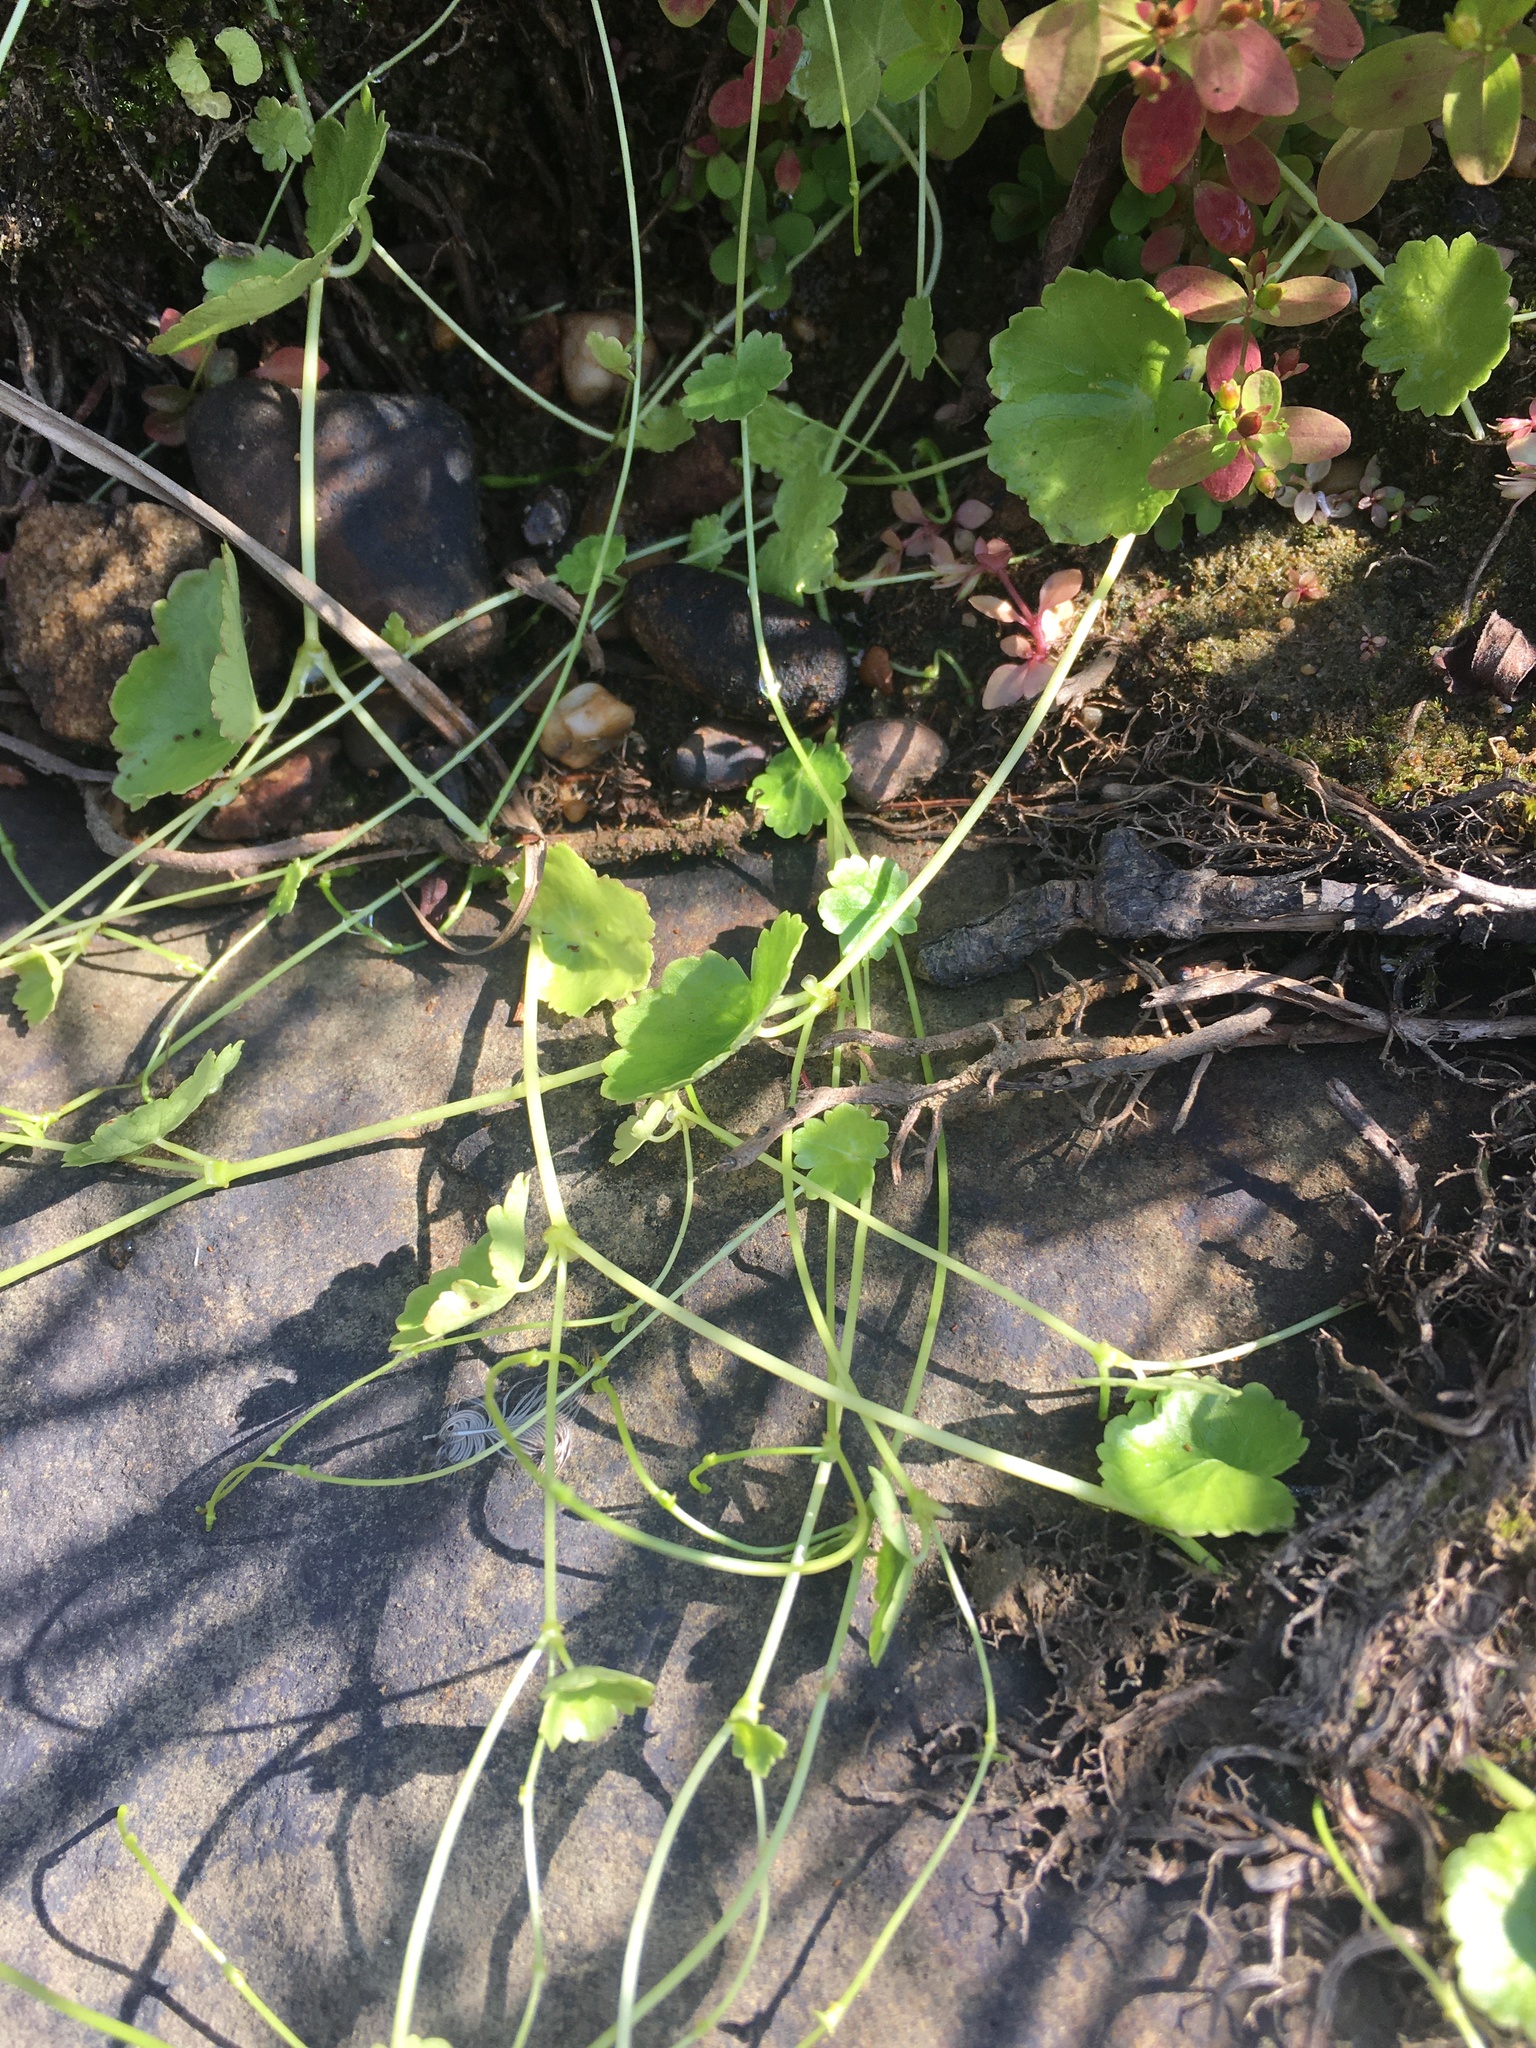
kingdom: Plantae
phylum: Tracheophyta
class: Magnoliopsida
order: Apiales
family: Araliaceae
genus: Hydrocotyle
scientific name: Hydrocotyle americana
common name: American water-pennywort
